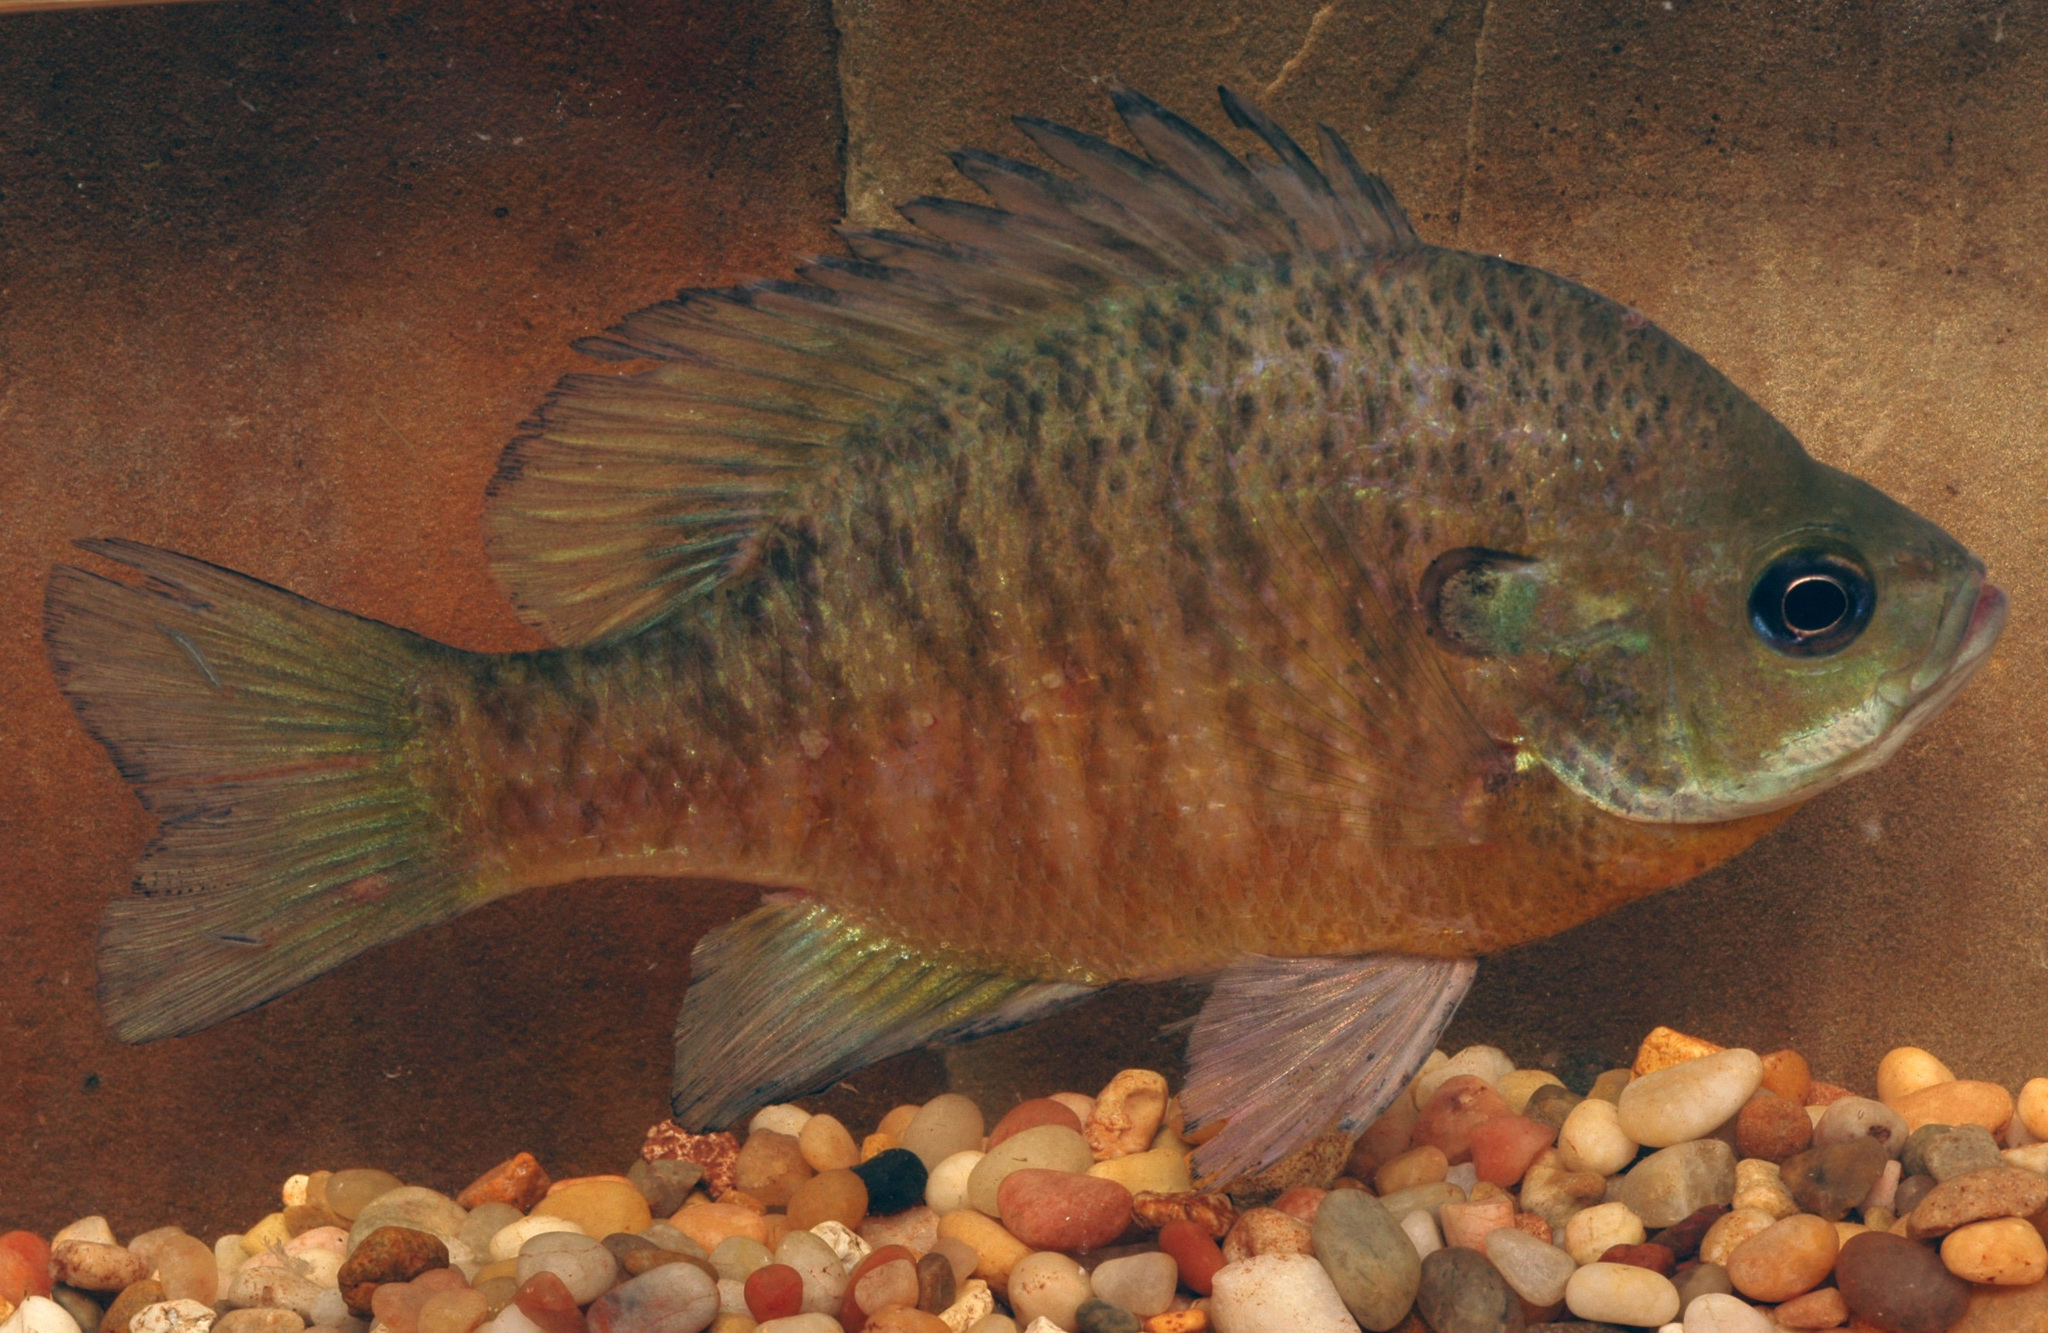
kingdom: Animalia
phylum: Chordata
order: Perciformes
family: Centrarchidae
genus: Lepomis
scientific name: Lepomis macrochirus
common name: Bluegill
